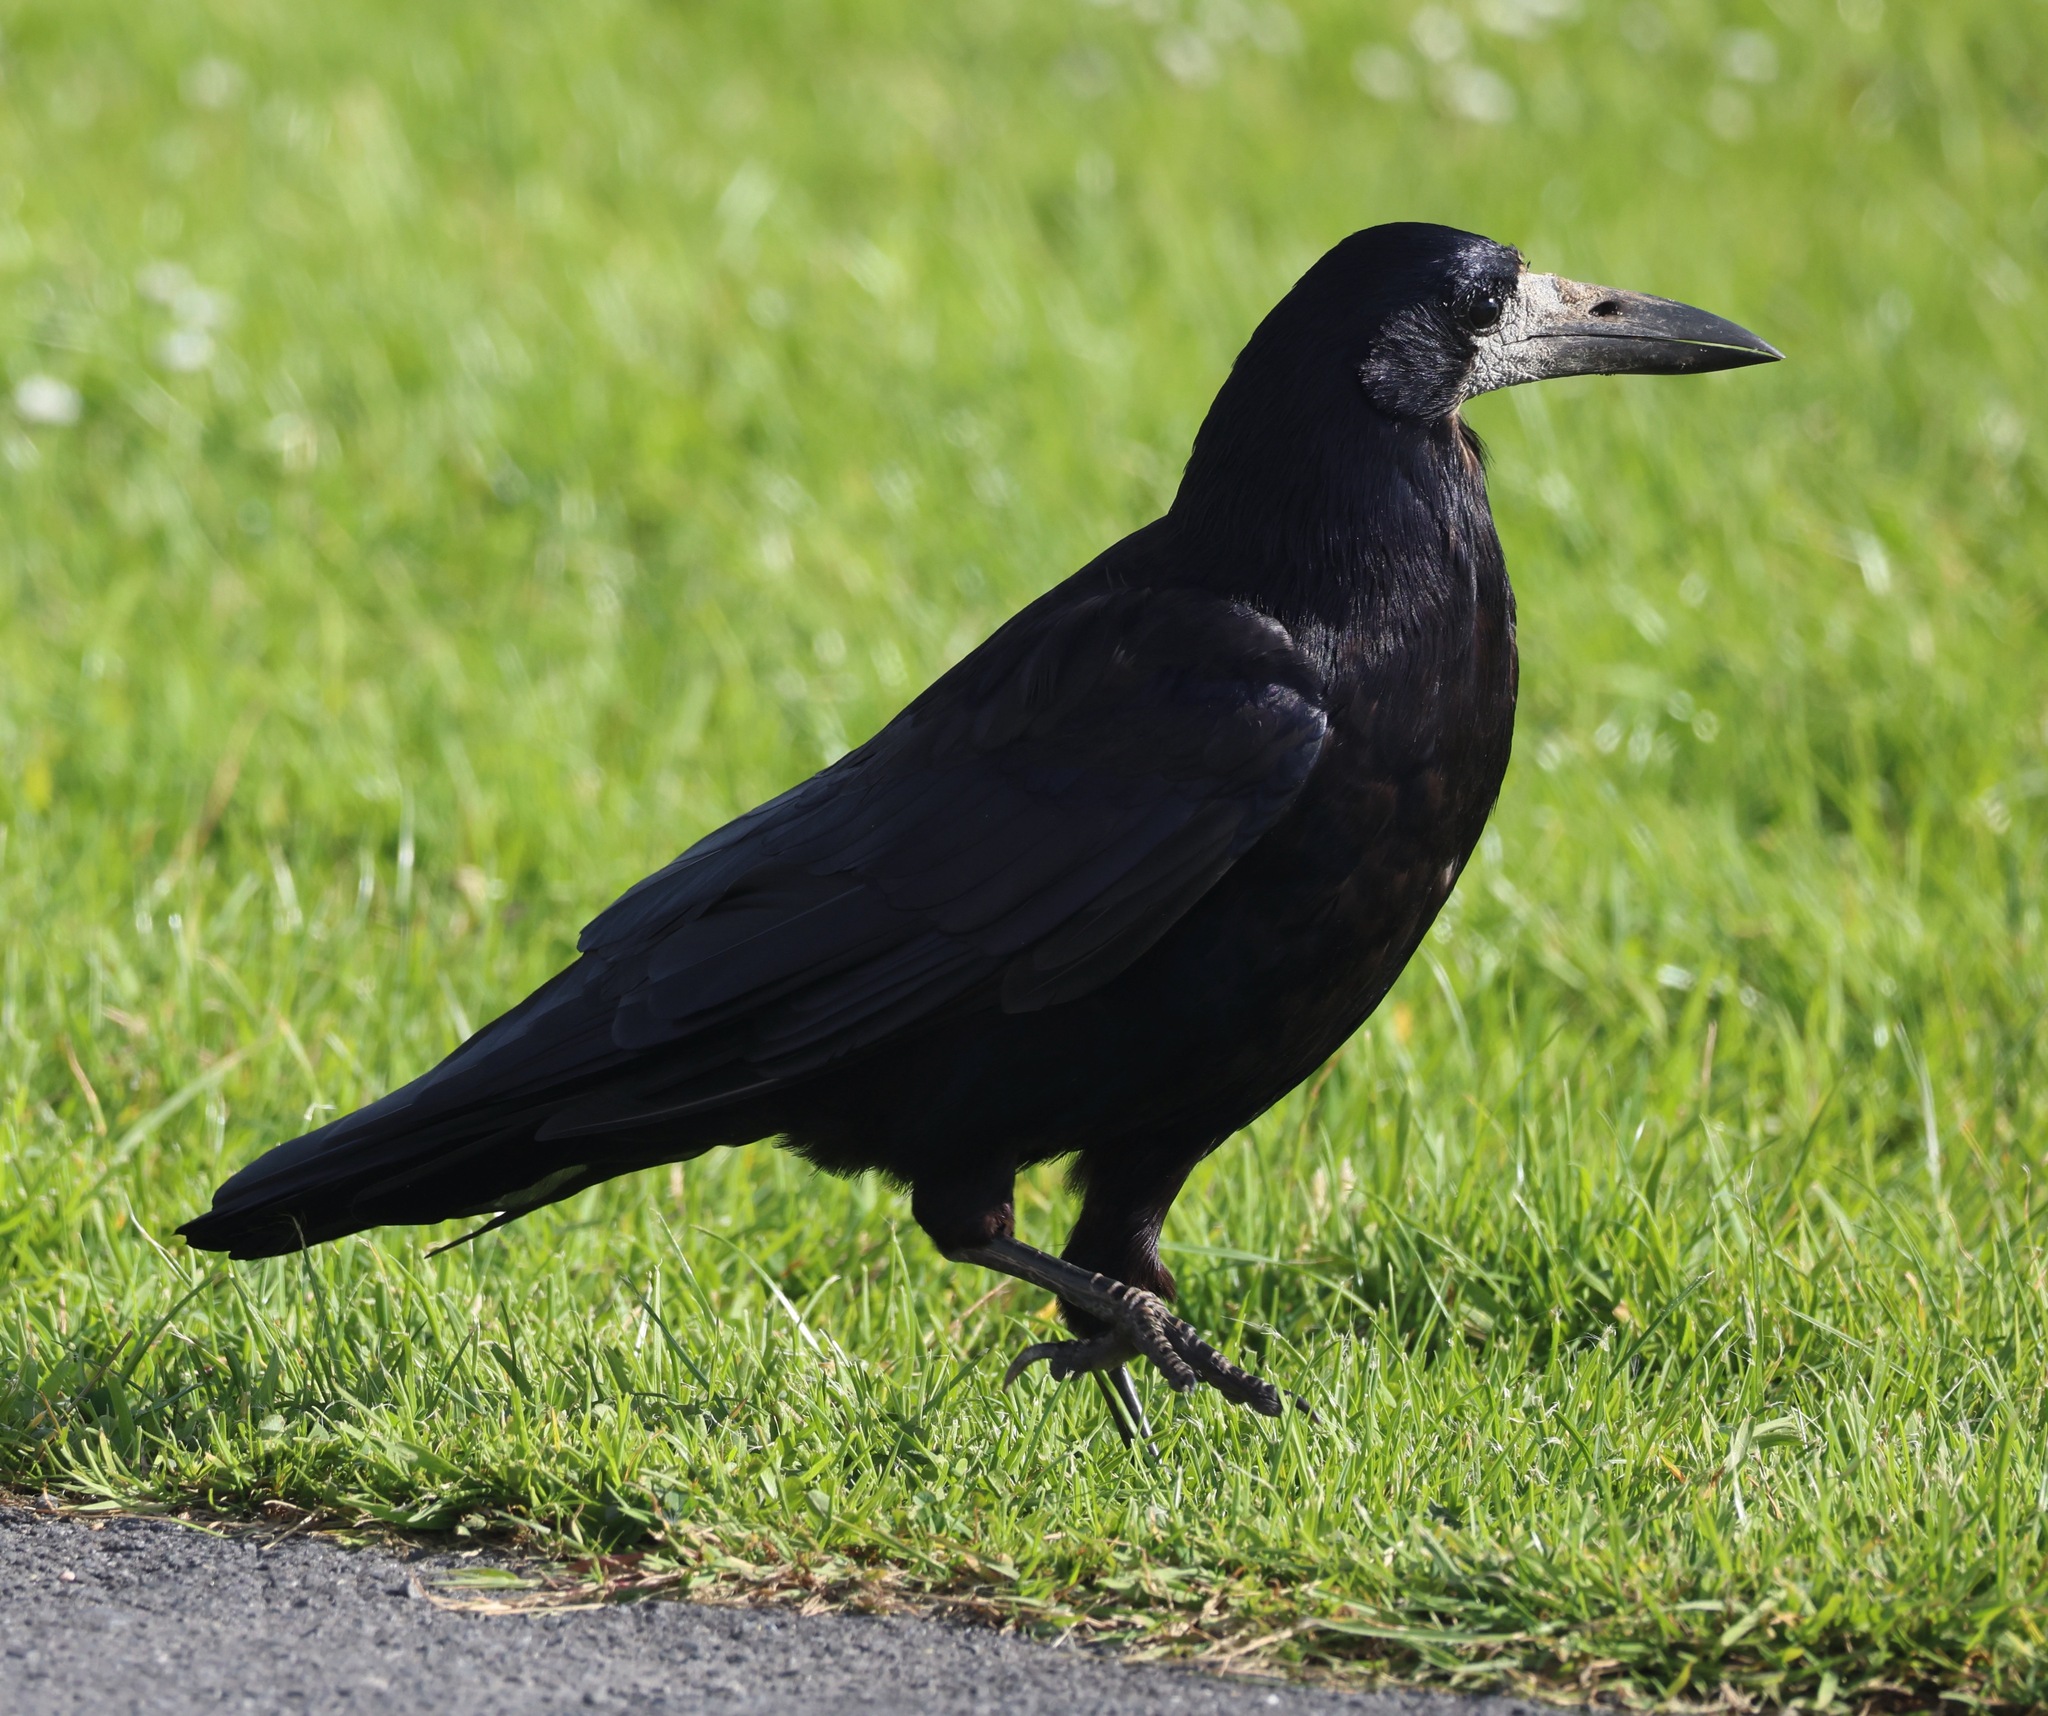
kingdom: Animalia
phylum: Chordata
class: Aves
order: Passeriformes
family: Corvidae
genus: Corvus
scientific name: Corvus frugilegus
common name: Rook
